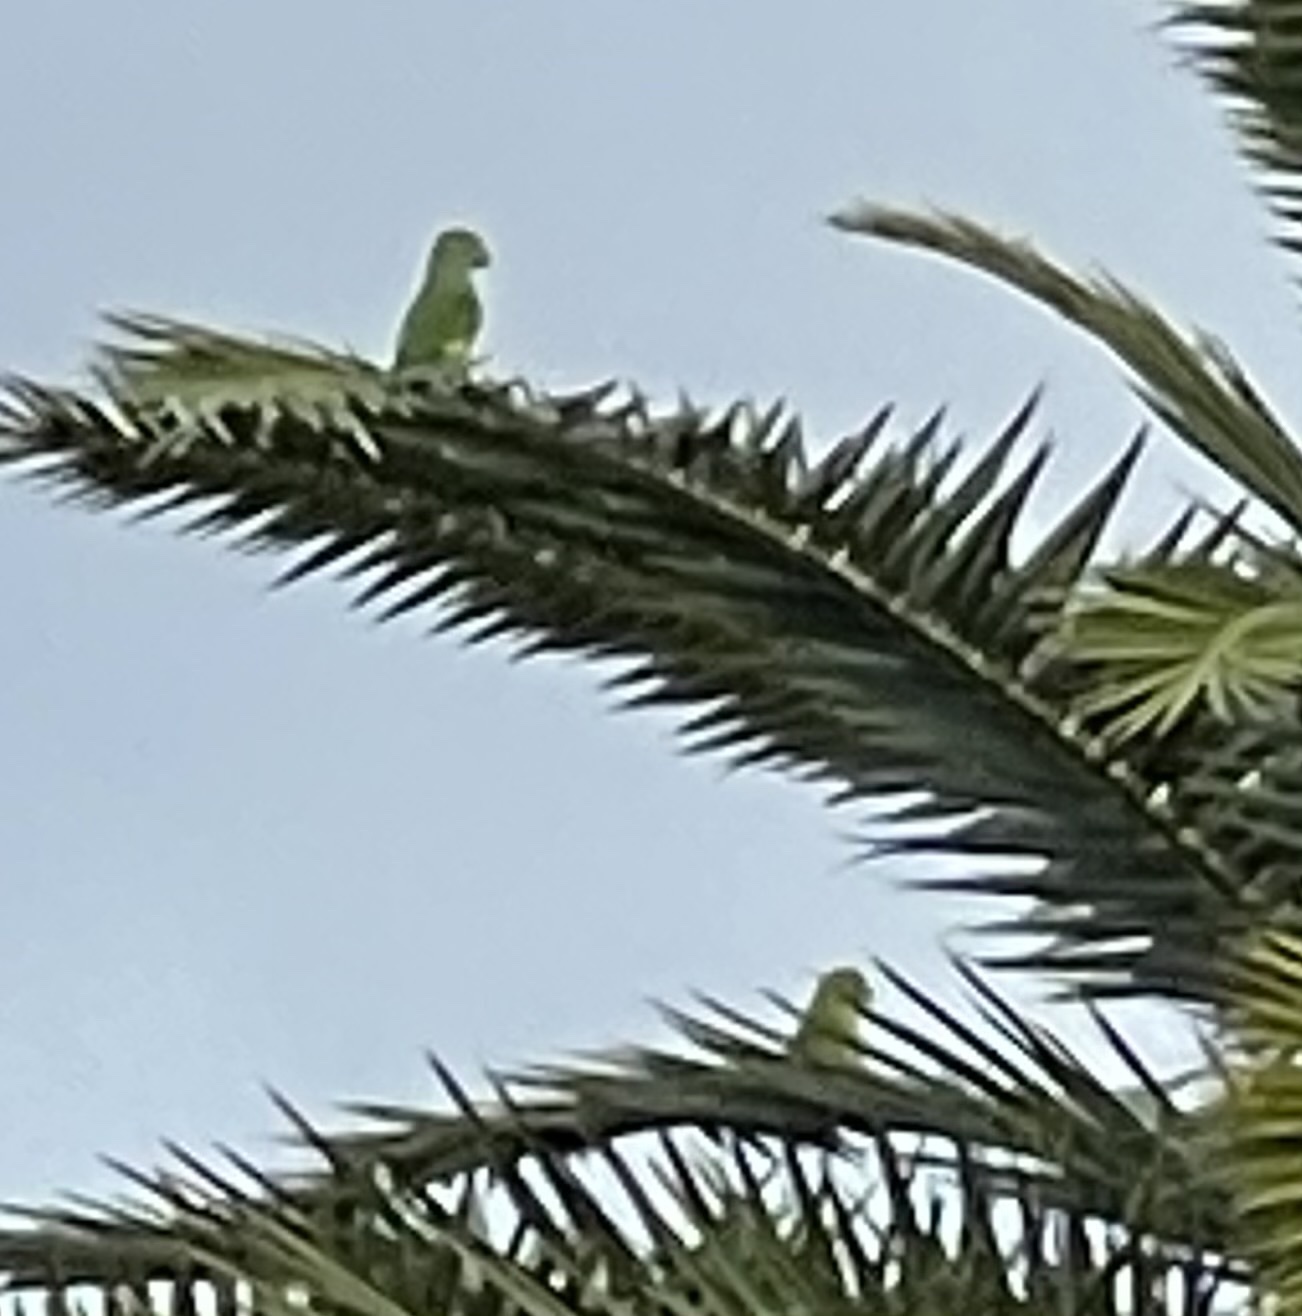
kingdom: Animalia
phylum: Chordata
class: Aves
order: Psittaciformes
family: Psittacidae
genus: Brotogeris
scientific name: Brotogeris chiriri
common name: Yellow-chevroned parakeet
